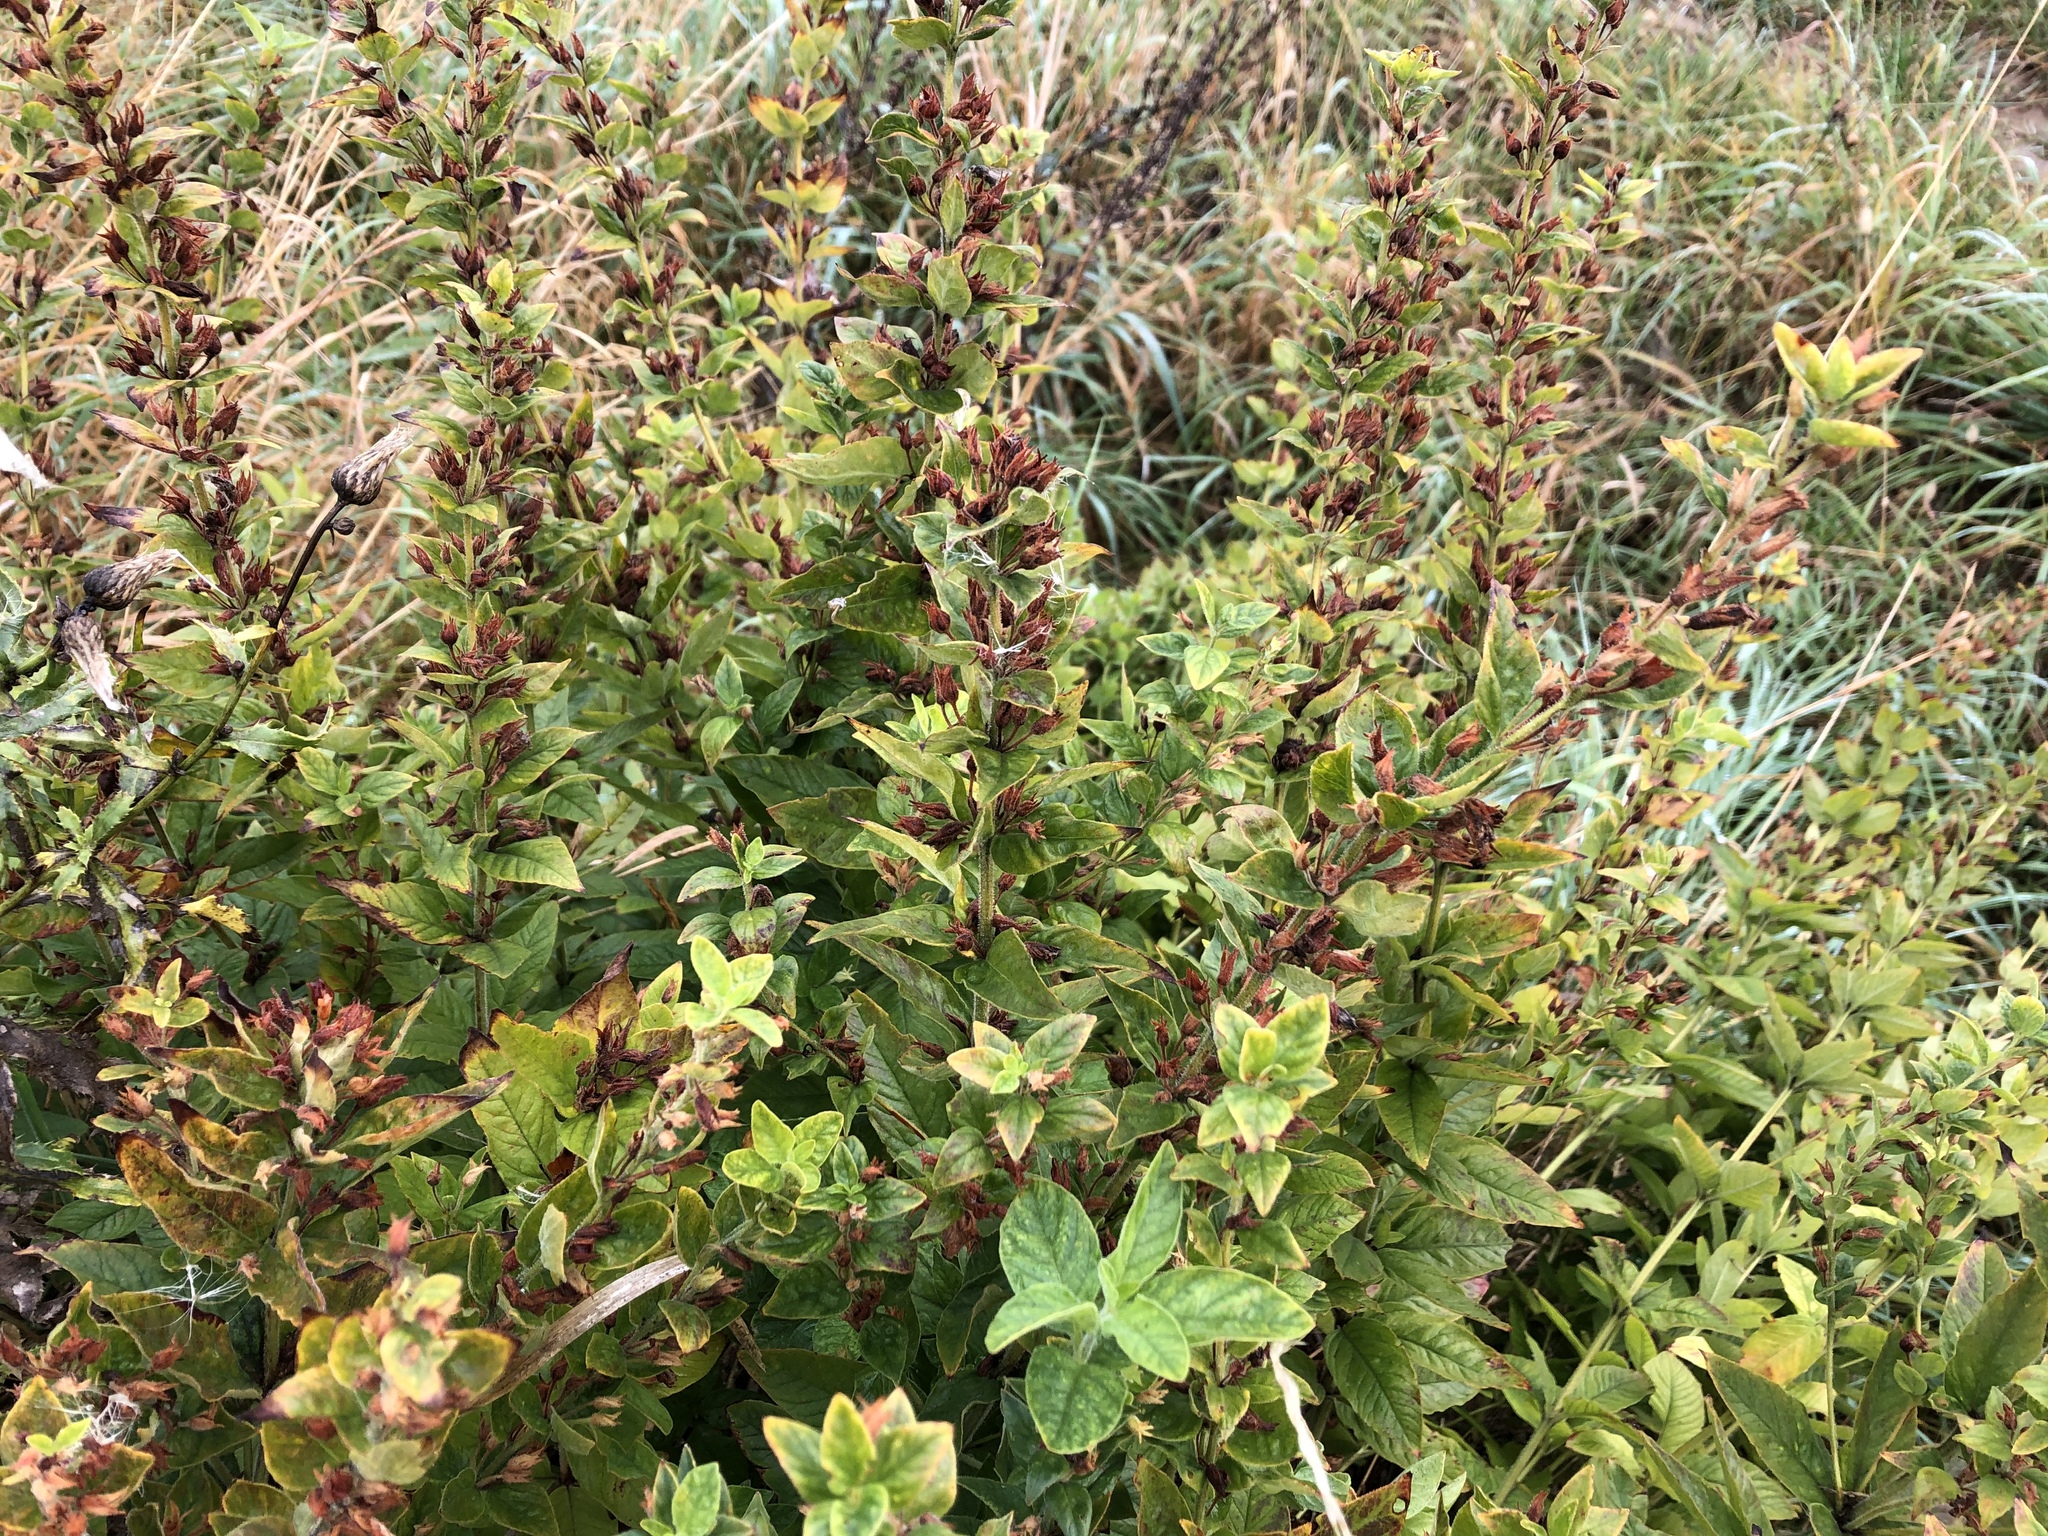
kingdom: Plantae
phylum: Tracheophyta
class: Magnoliopsida
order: Ericales
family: Primulaceae
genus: Lysimachia
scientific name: Lysimachia punctata
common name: Dotted loosestrife
